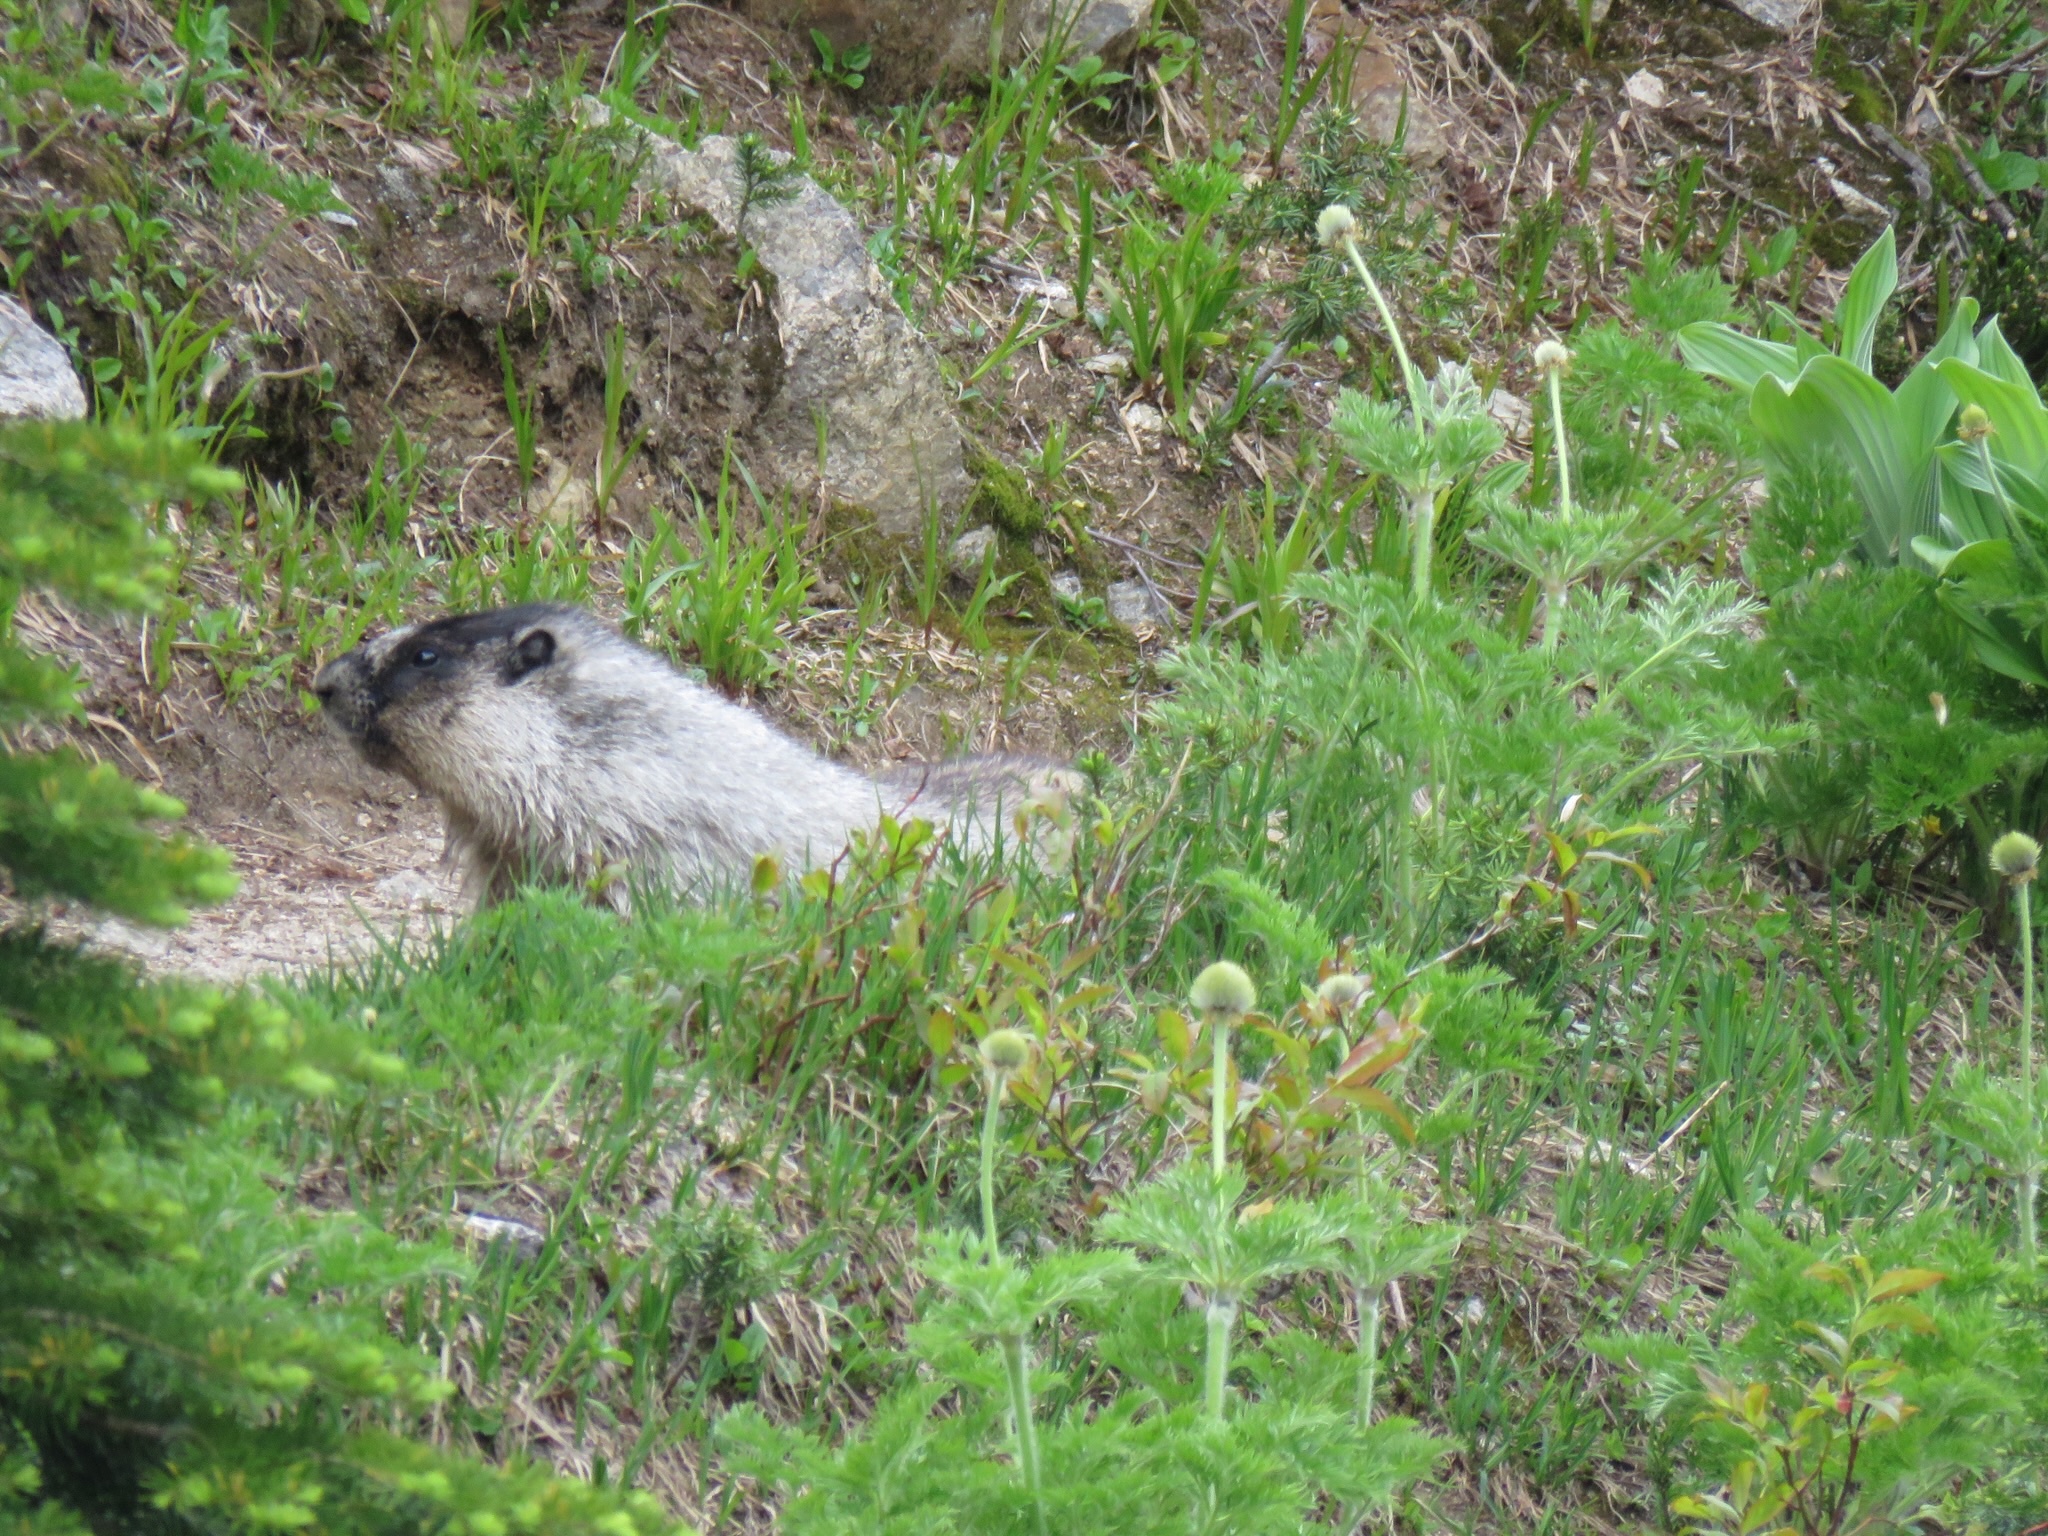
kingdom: Animalia
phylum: Chordata
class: Mammalia
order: Rodentia
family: Sciuridae
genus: Marmota
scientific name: Marmota caligata
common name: Hoary marmot
